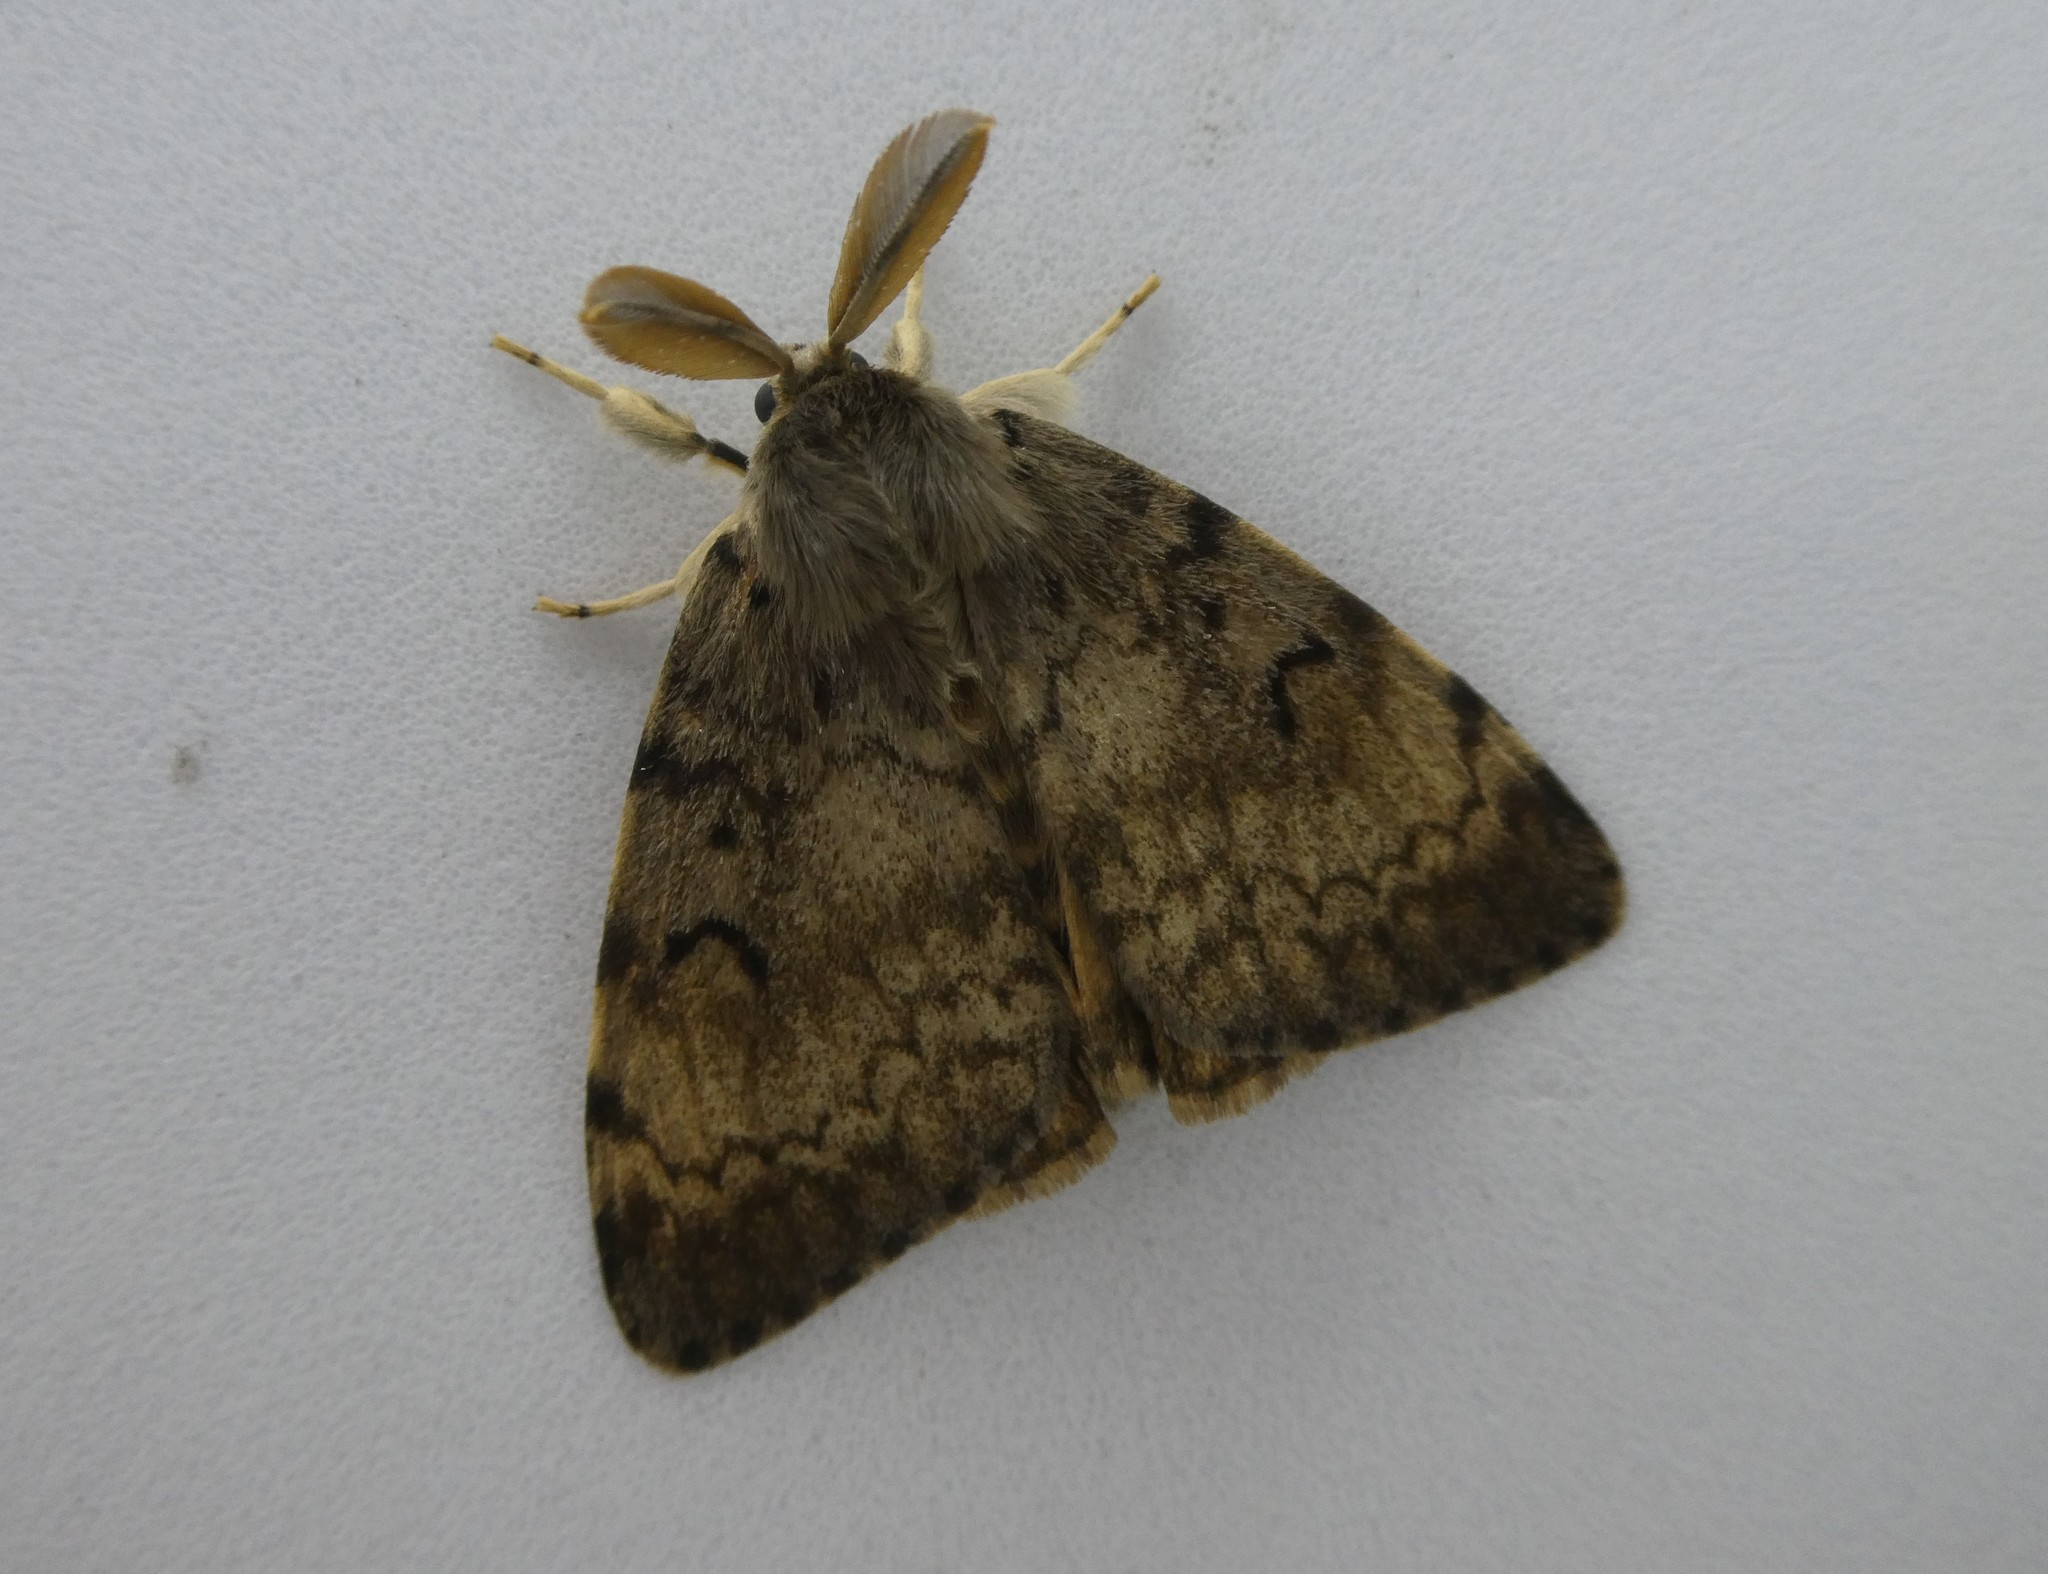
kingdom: Animalia
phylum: Arthropoda
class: Insecta
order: Lepidoptera
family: Erebidae
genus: Lymantria
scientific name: Lymantria dispar
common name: Gypsy moth
